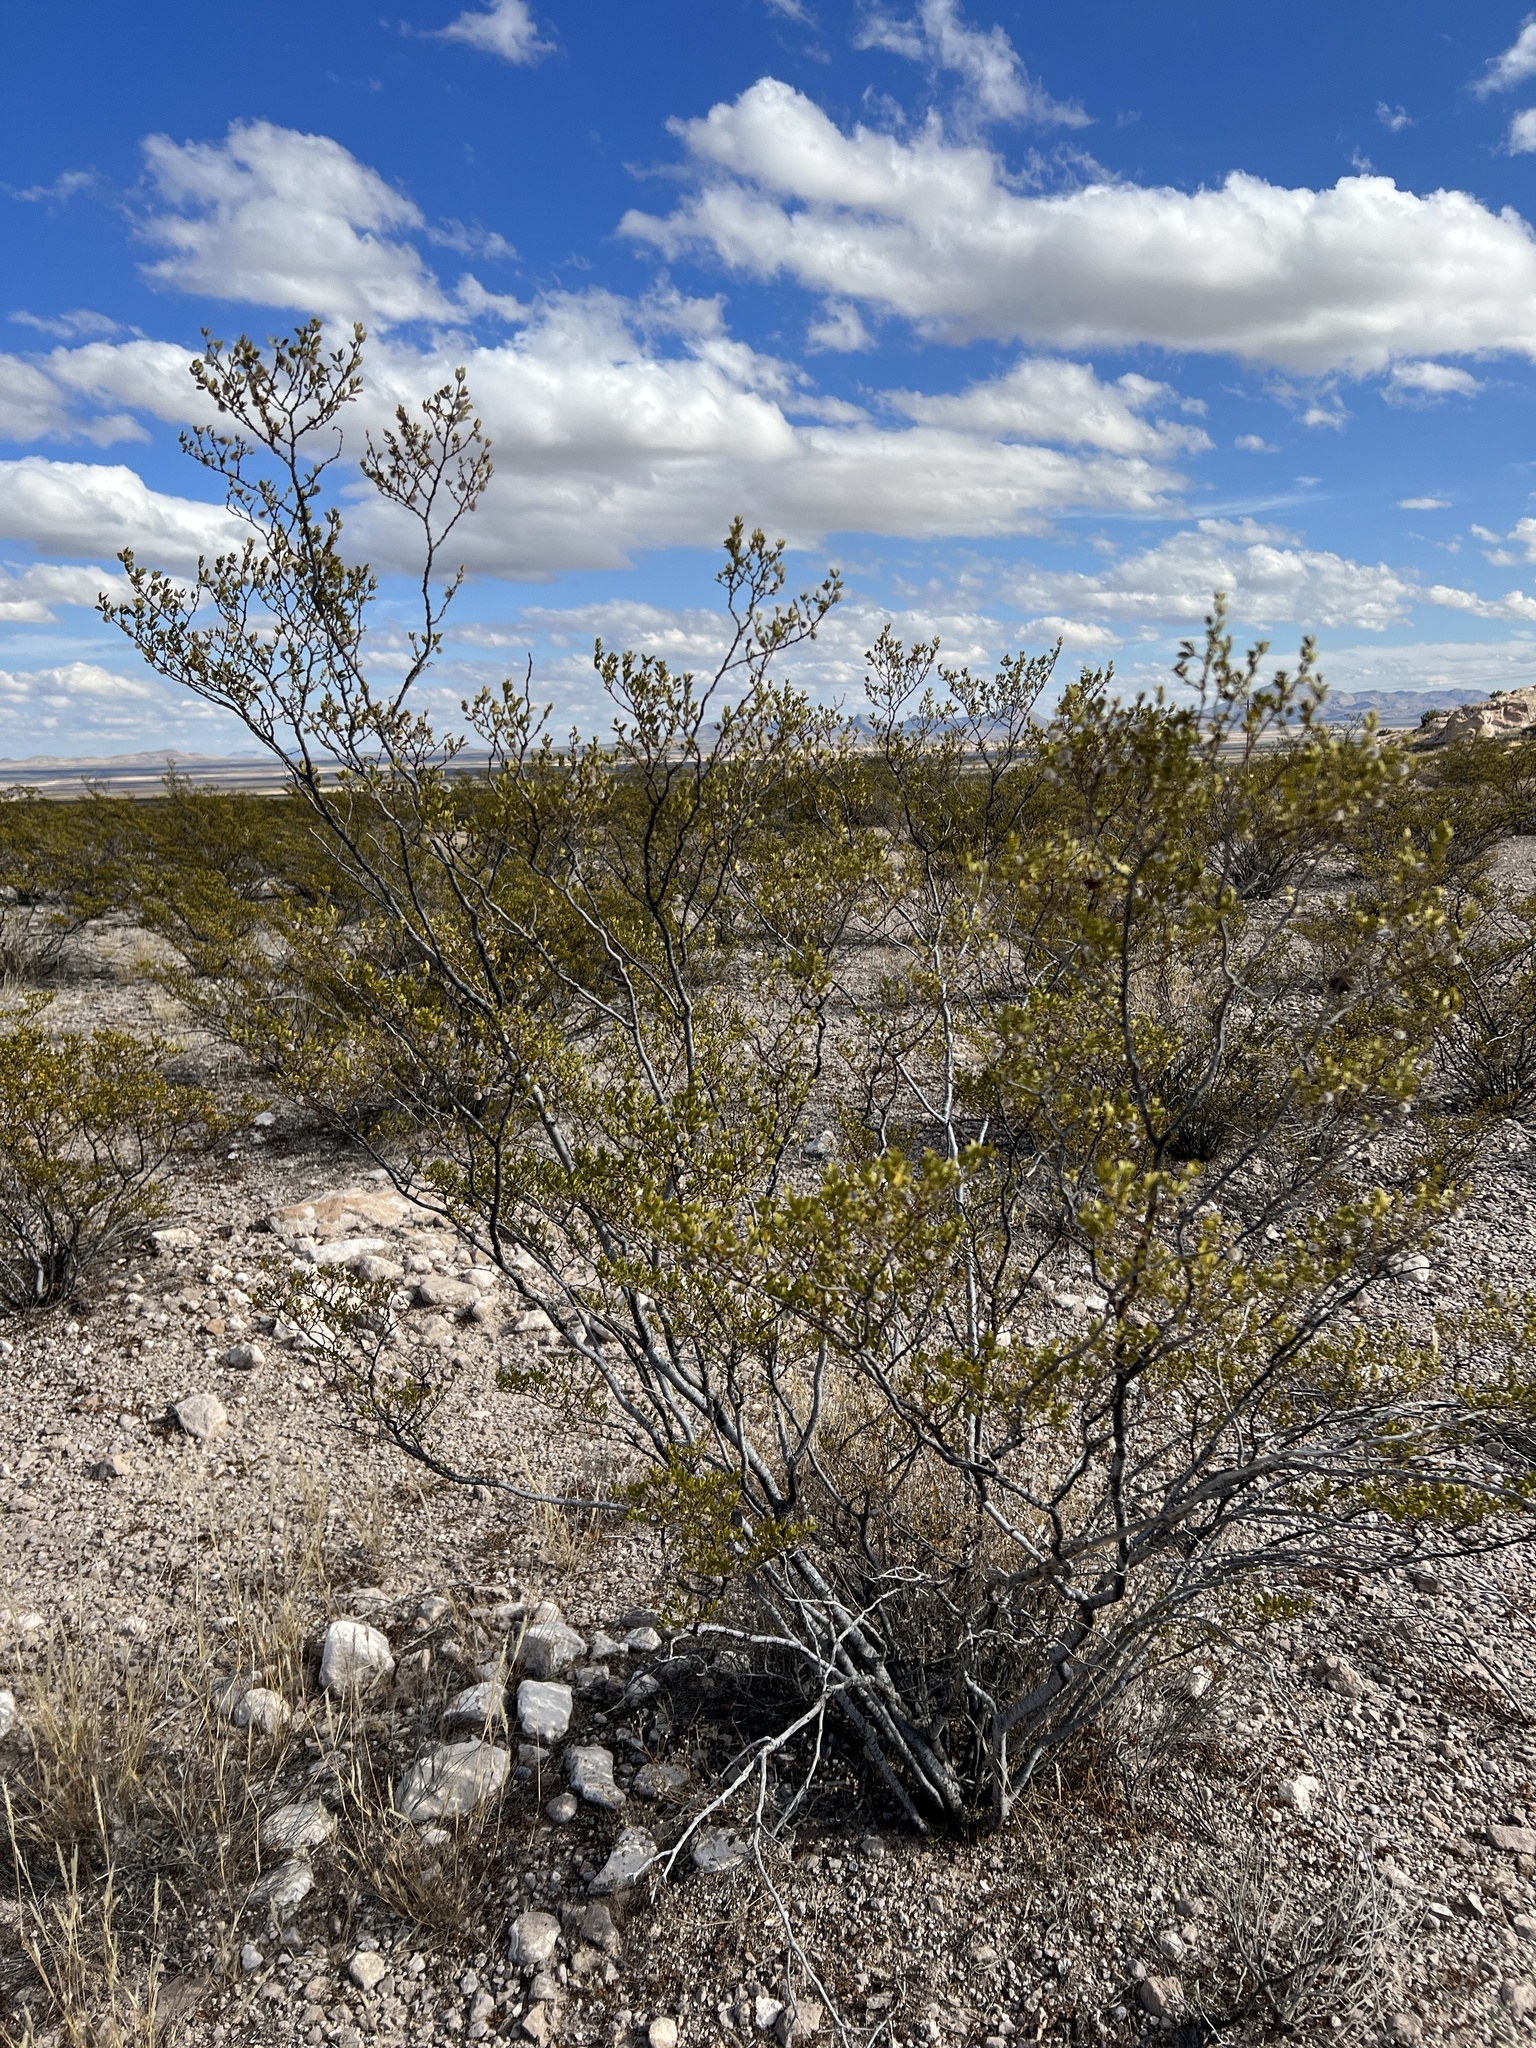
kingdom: Plantae
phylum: Tracheophyta
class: Magnoliopsida
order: Zygophyllales
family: Zygophyllaceae
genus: Larrea
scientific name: Larrea tridentata
